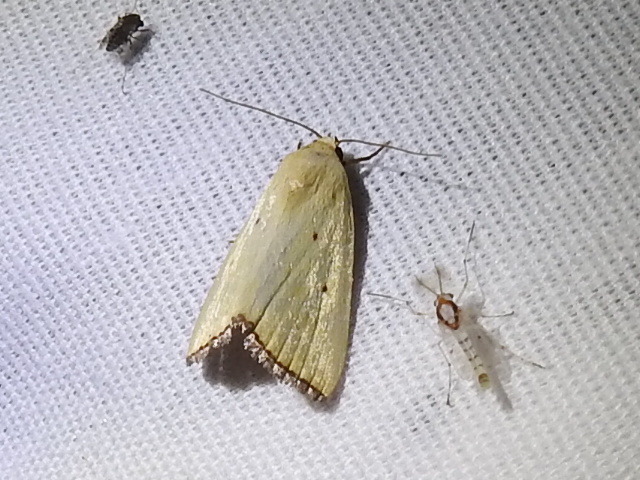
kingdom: Animalia
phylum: Arthropoda
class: Insecta
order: Lepidoptera
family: Noctuidae
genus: Marimatha
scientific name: Marimatha nigrofimbria
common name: Black-bordered lemon moth
